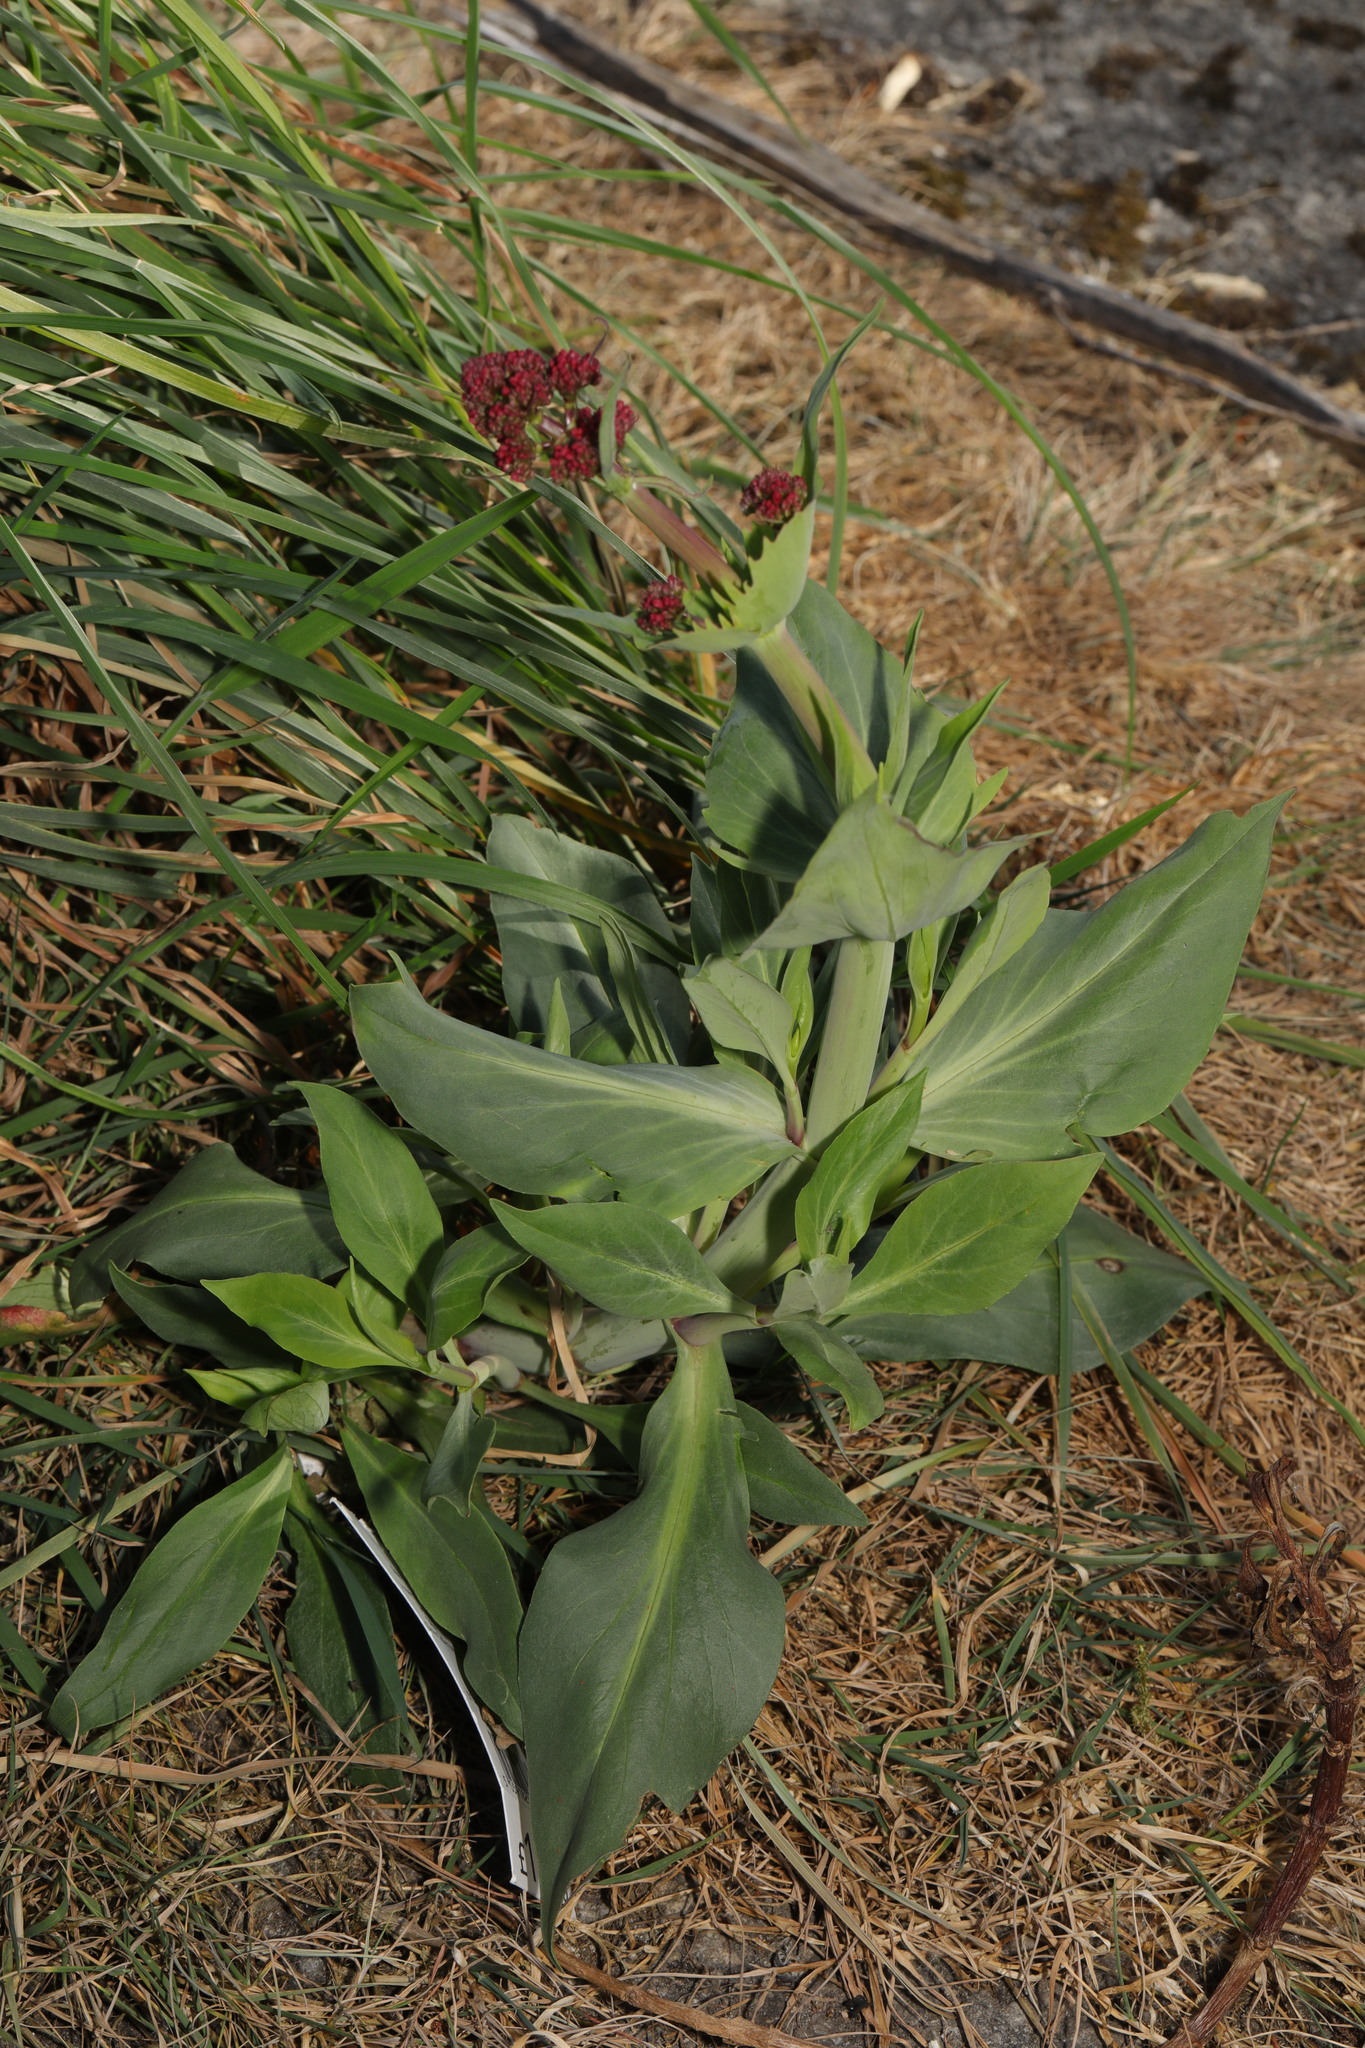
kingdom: Plantae
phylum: Tracheophyta
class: Magnoliopsida
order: Dipsacales
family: Caprifoliaceae
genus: Centranthus
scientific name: Centranthus ruber
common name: Red valerian
